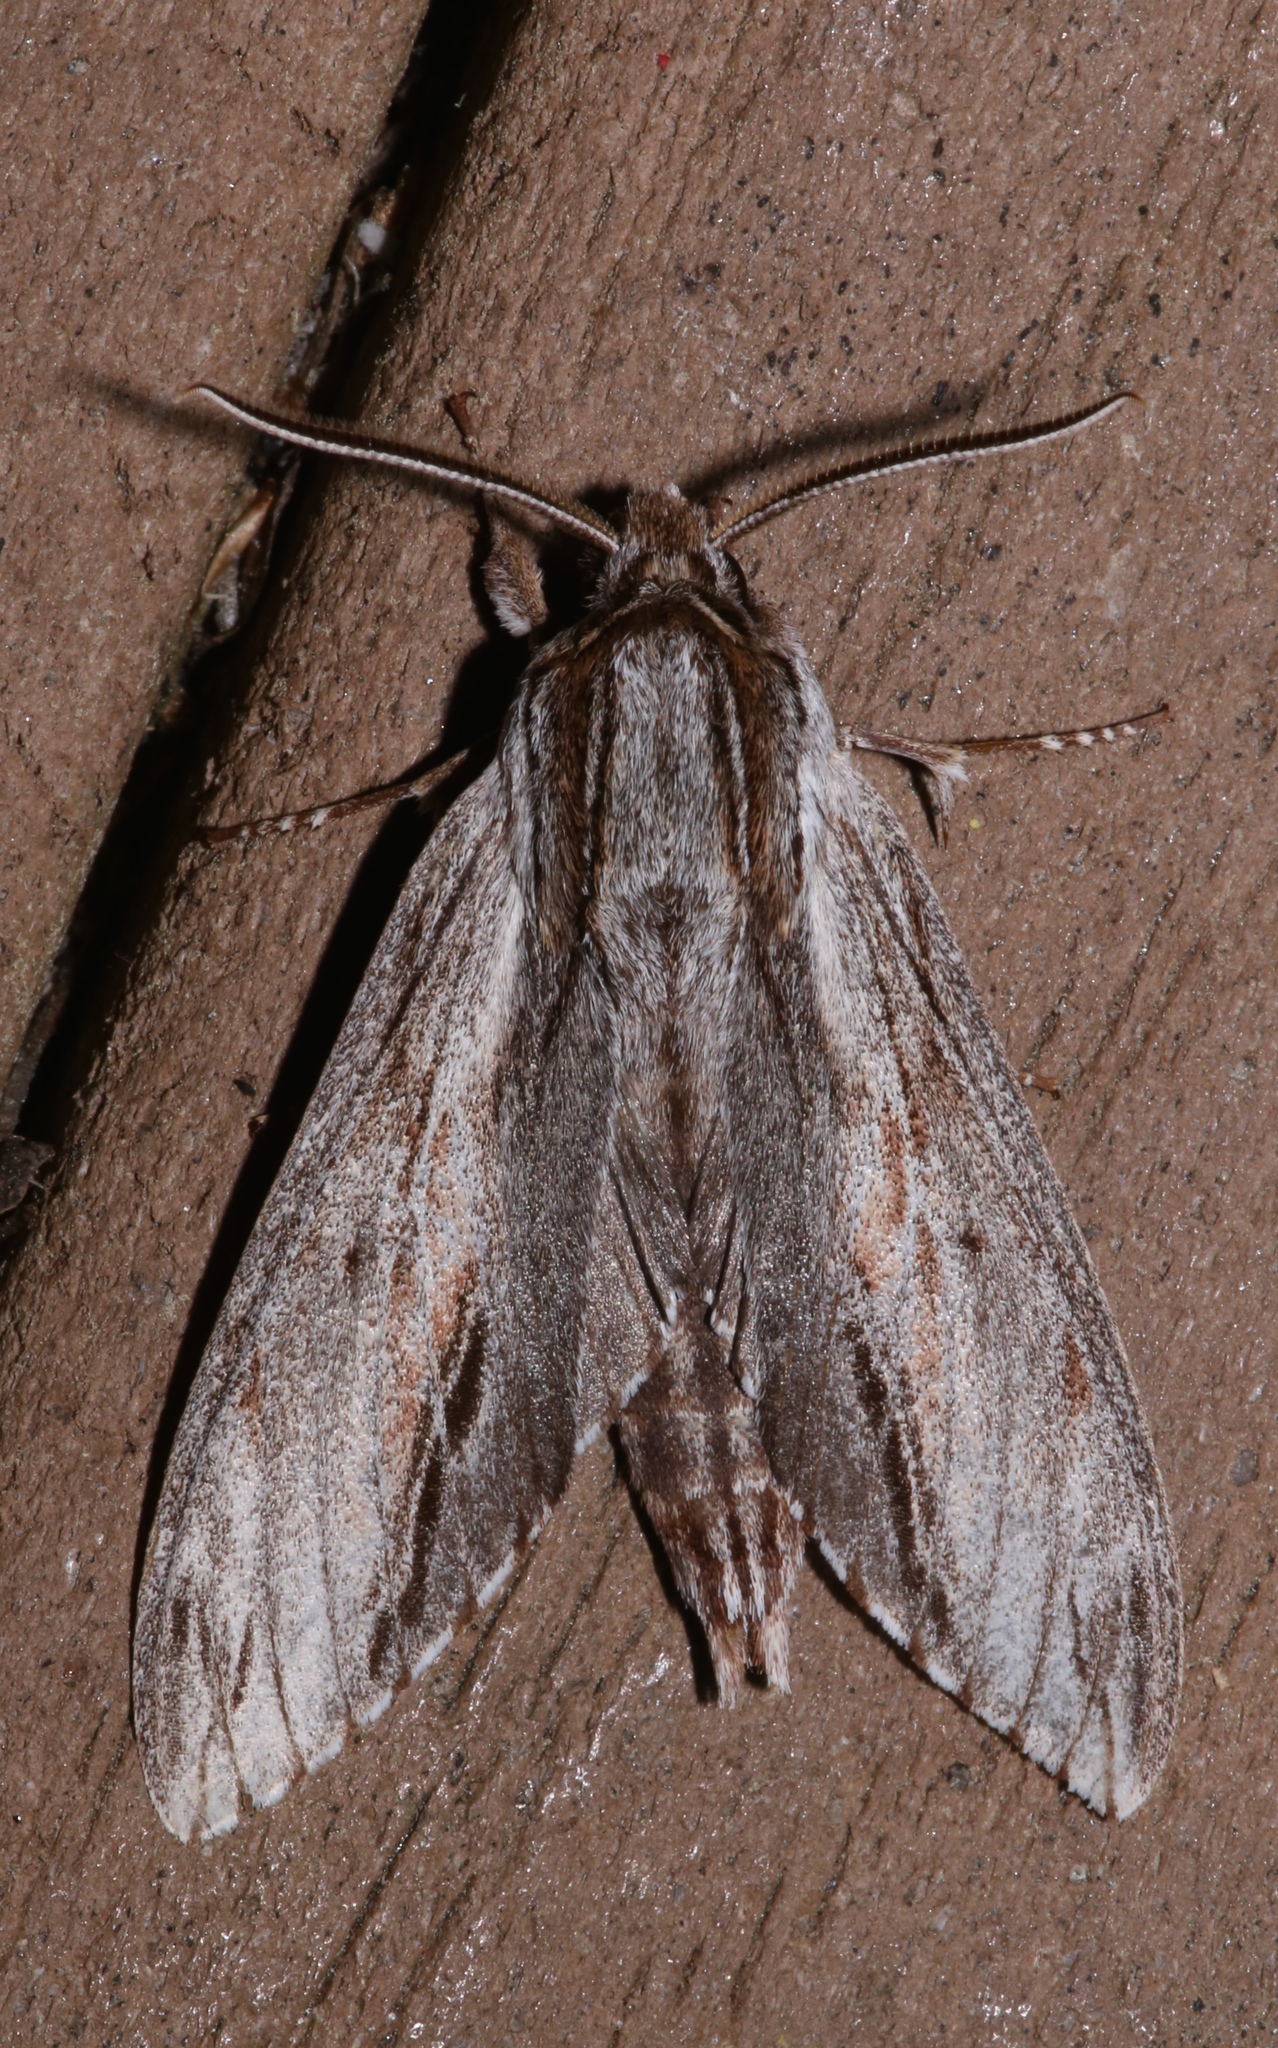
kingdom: Animalia
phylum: Arthropoda
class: Insecta
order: Lepidoptera
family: Sphingidae
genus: Isoparce
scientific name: Isoparce cupressi
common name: Cypress sphinx
